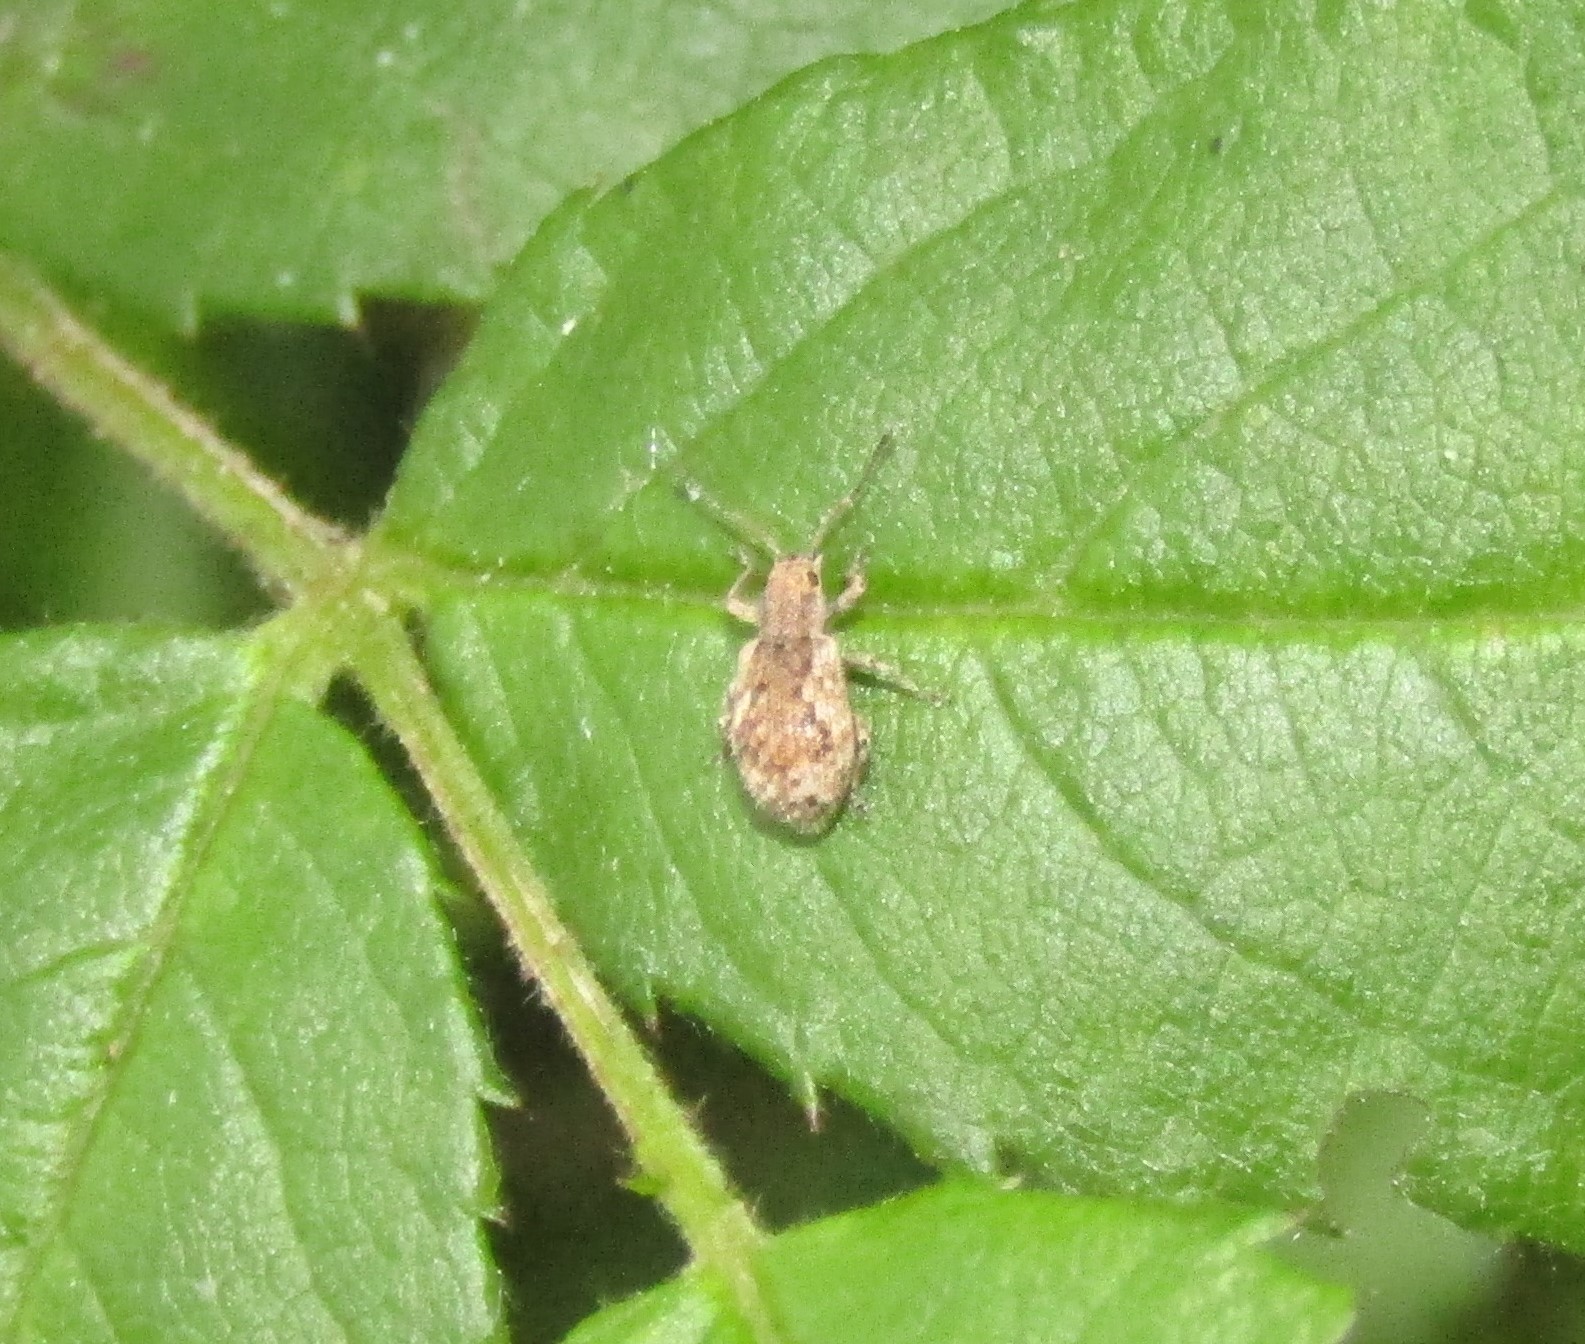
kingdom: Animalia
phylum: Arthropoda
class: Insecta
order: Coleoptera
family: Curculionidae
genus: Pseudoedophrys
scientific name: Pseudoedophrys hilleri
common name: Weevil
